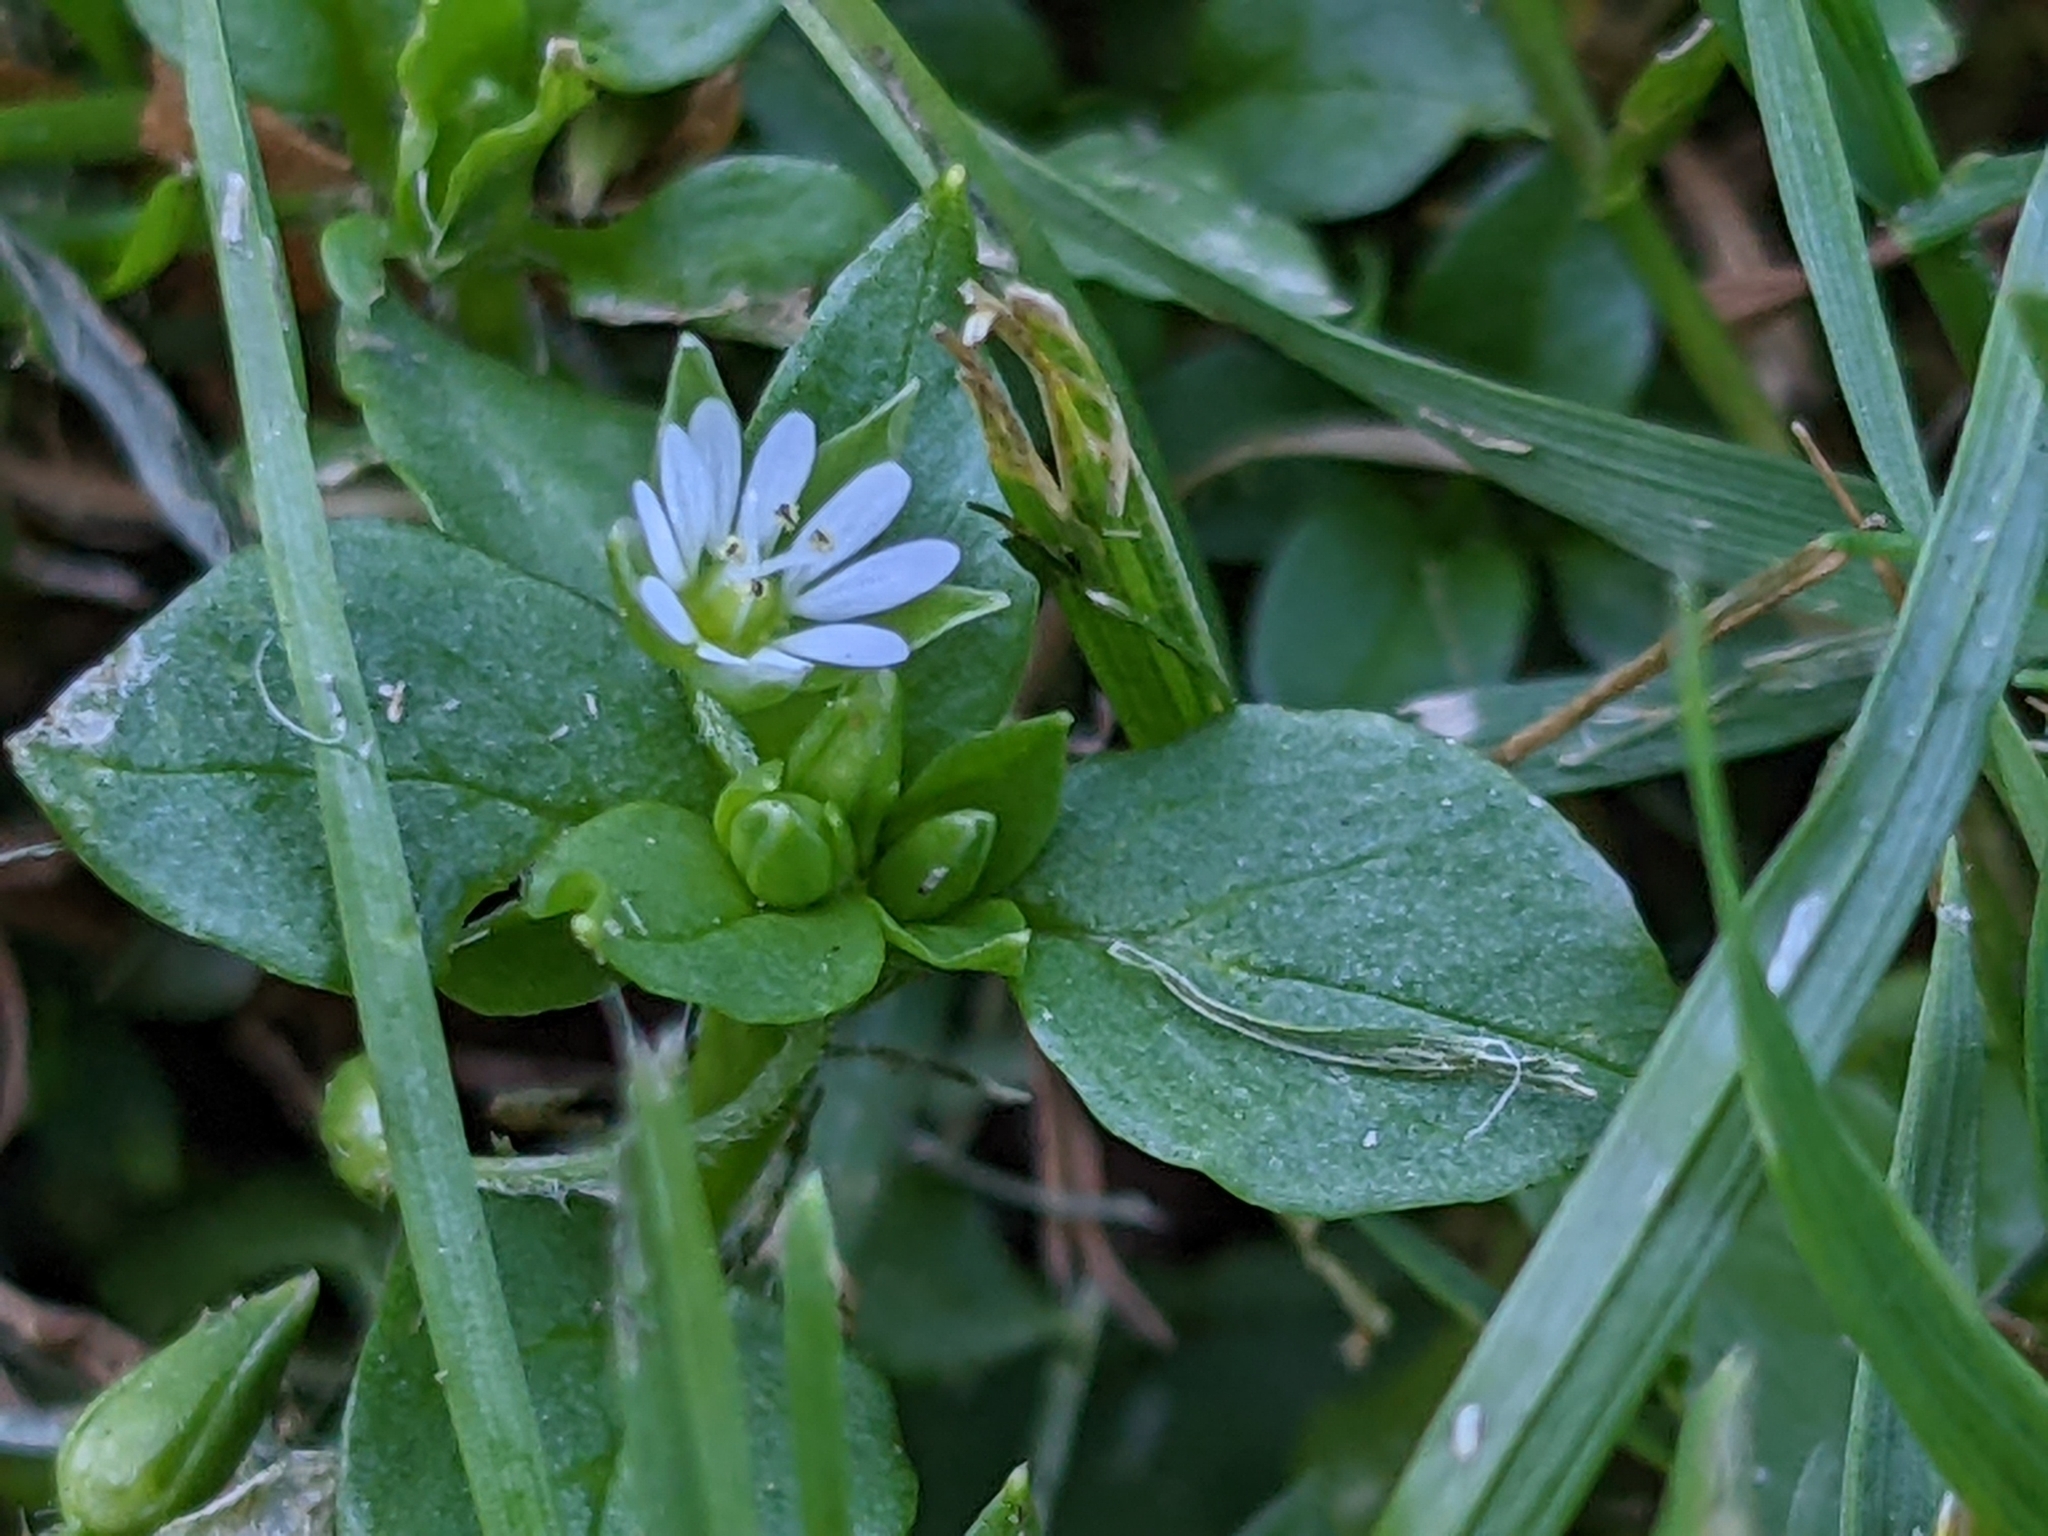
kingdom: Plantae
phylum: Tracheophyta
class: Magnoliopsida
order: Caryophyllales
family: Caryophyllaceae
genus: Stellaria
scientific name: Stellaria media
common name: Common chickweed
